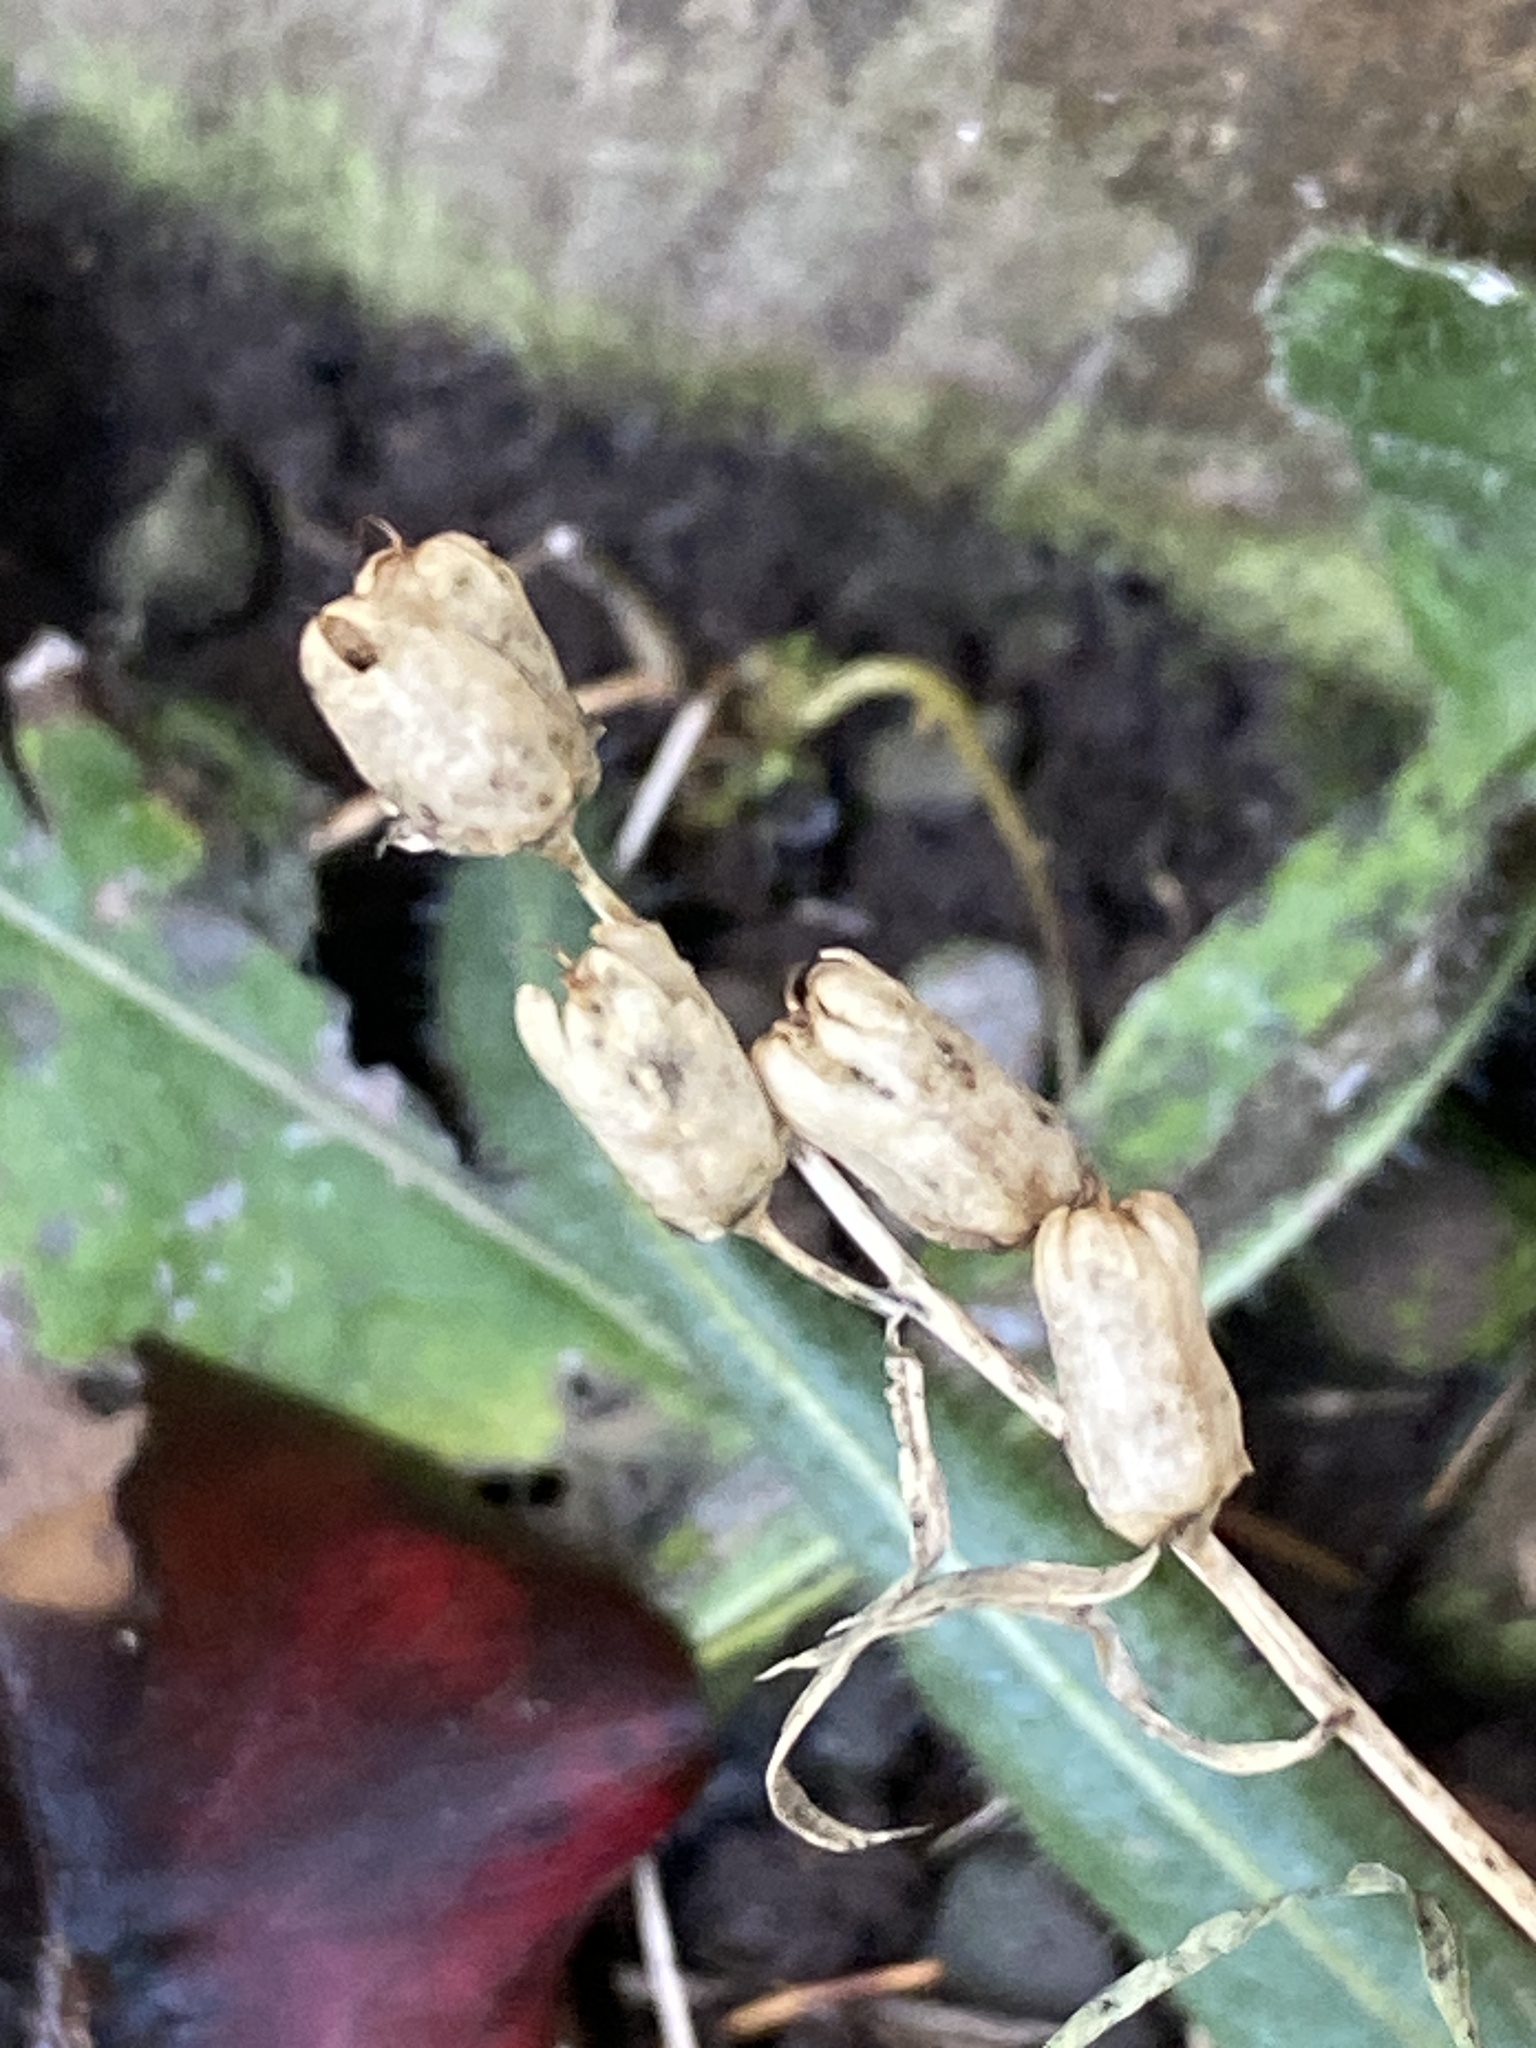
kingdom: Plantae
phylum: Tracheophyta
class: Magnoliopsida
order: Lamiales
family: Plantaginaceae
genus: Linaria
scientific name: Linaria vulgaris
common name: Butter and eggs
